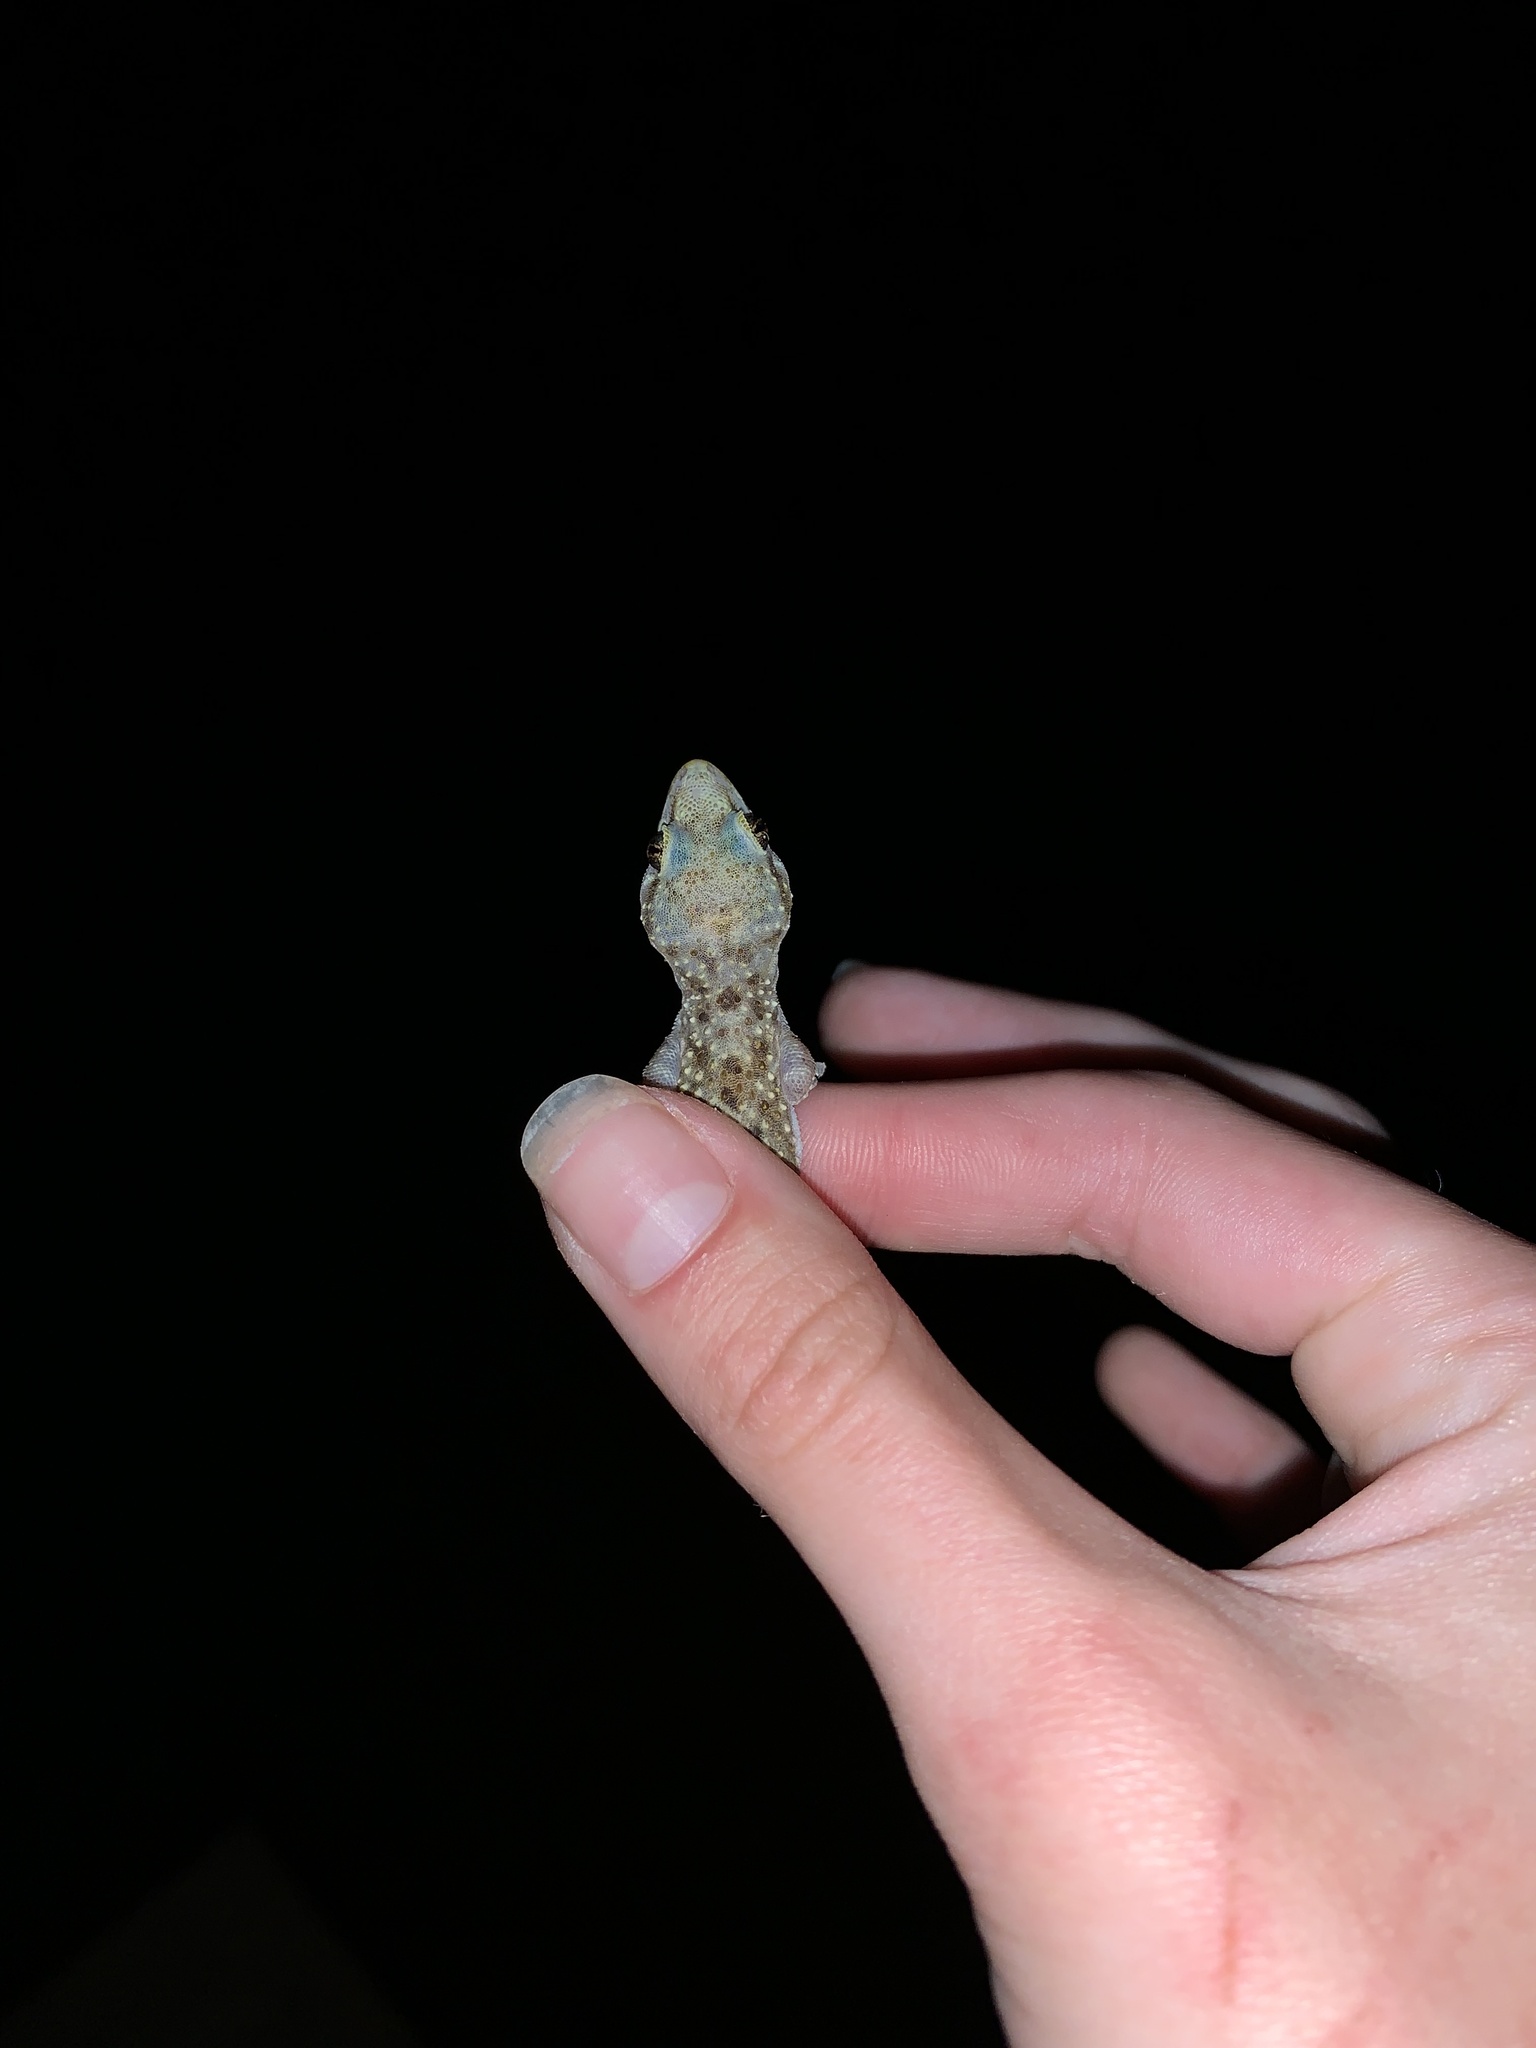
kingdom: Animalia
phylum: Chordata
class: Squamata
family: Gekkonidae
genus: Hemidactylus
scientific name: Hemidactylus turcicus
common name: Turkish gecko
